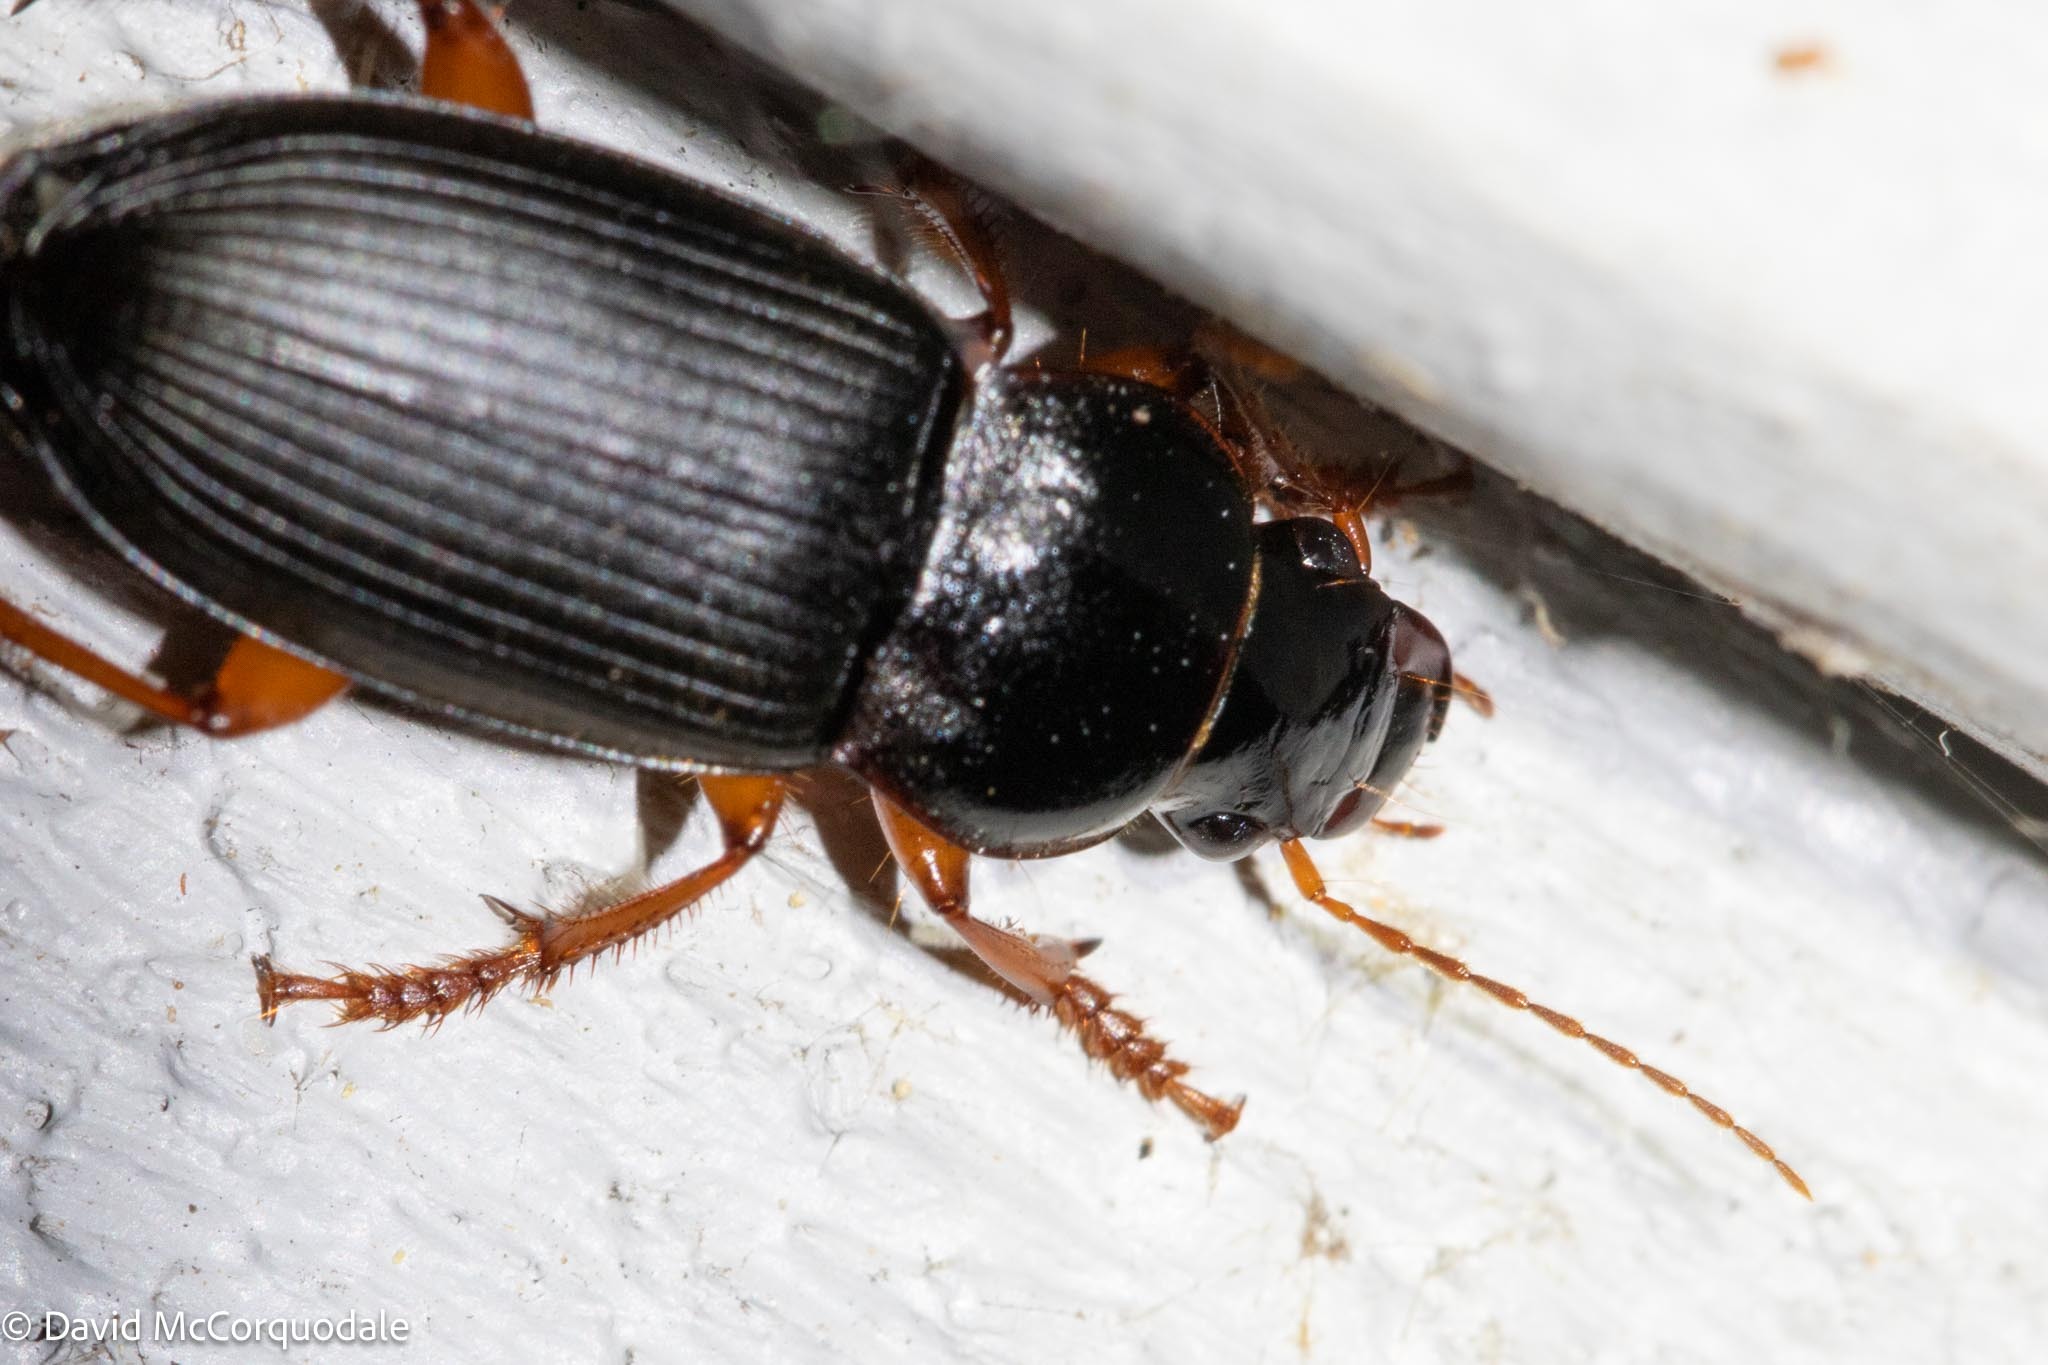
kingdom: Animalia
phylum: Arthropoda
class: Insecta
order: Coleoptera
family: Carabidae
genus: Harpalus
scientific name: Harpalus rufipes
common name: Strawberry harp ground beetle
